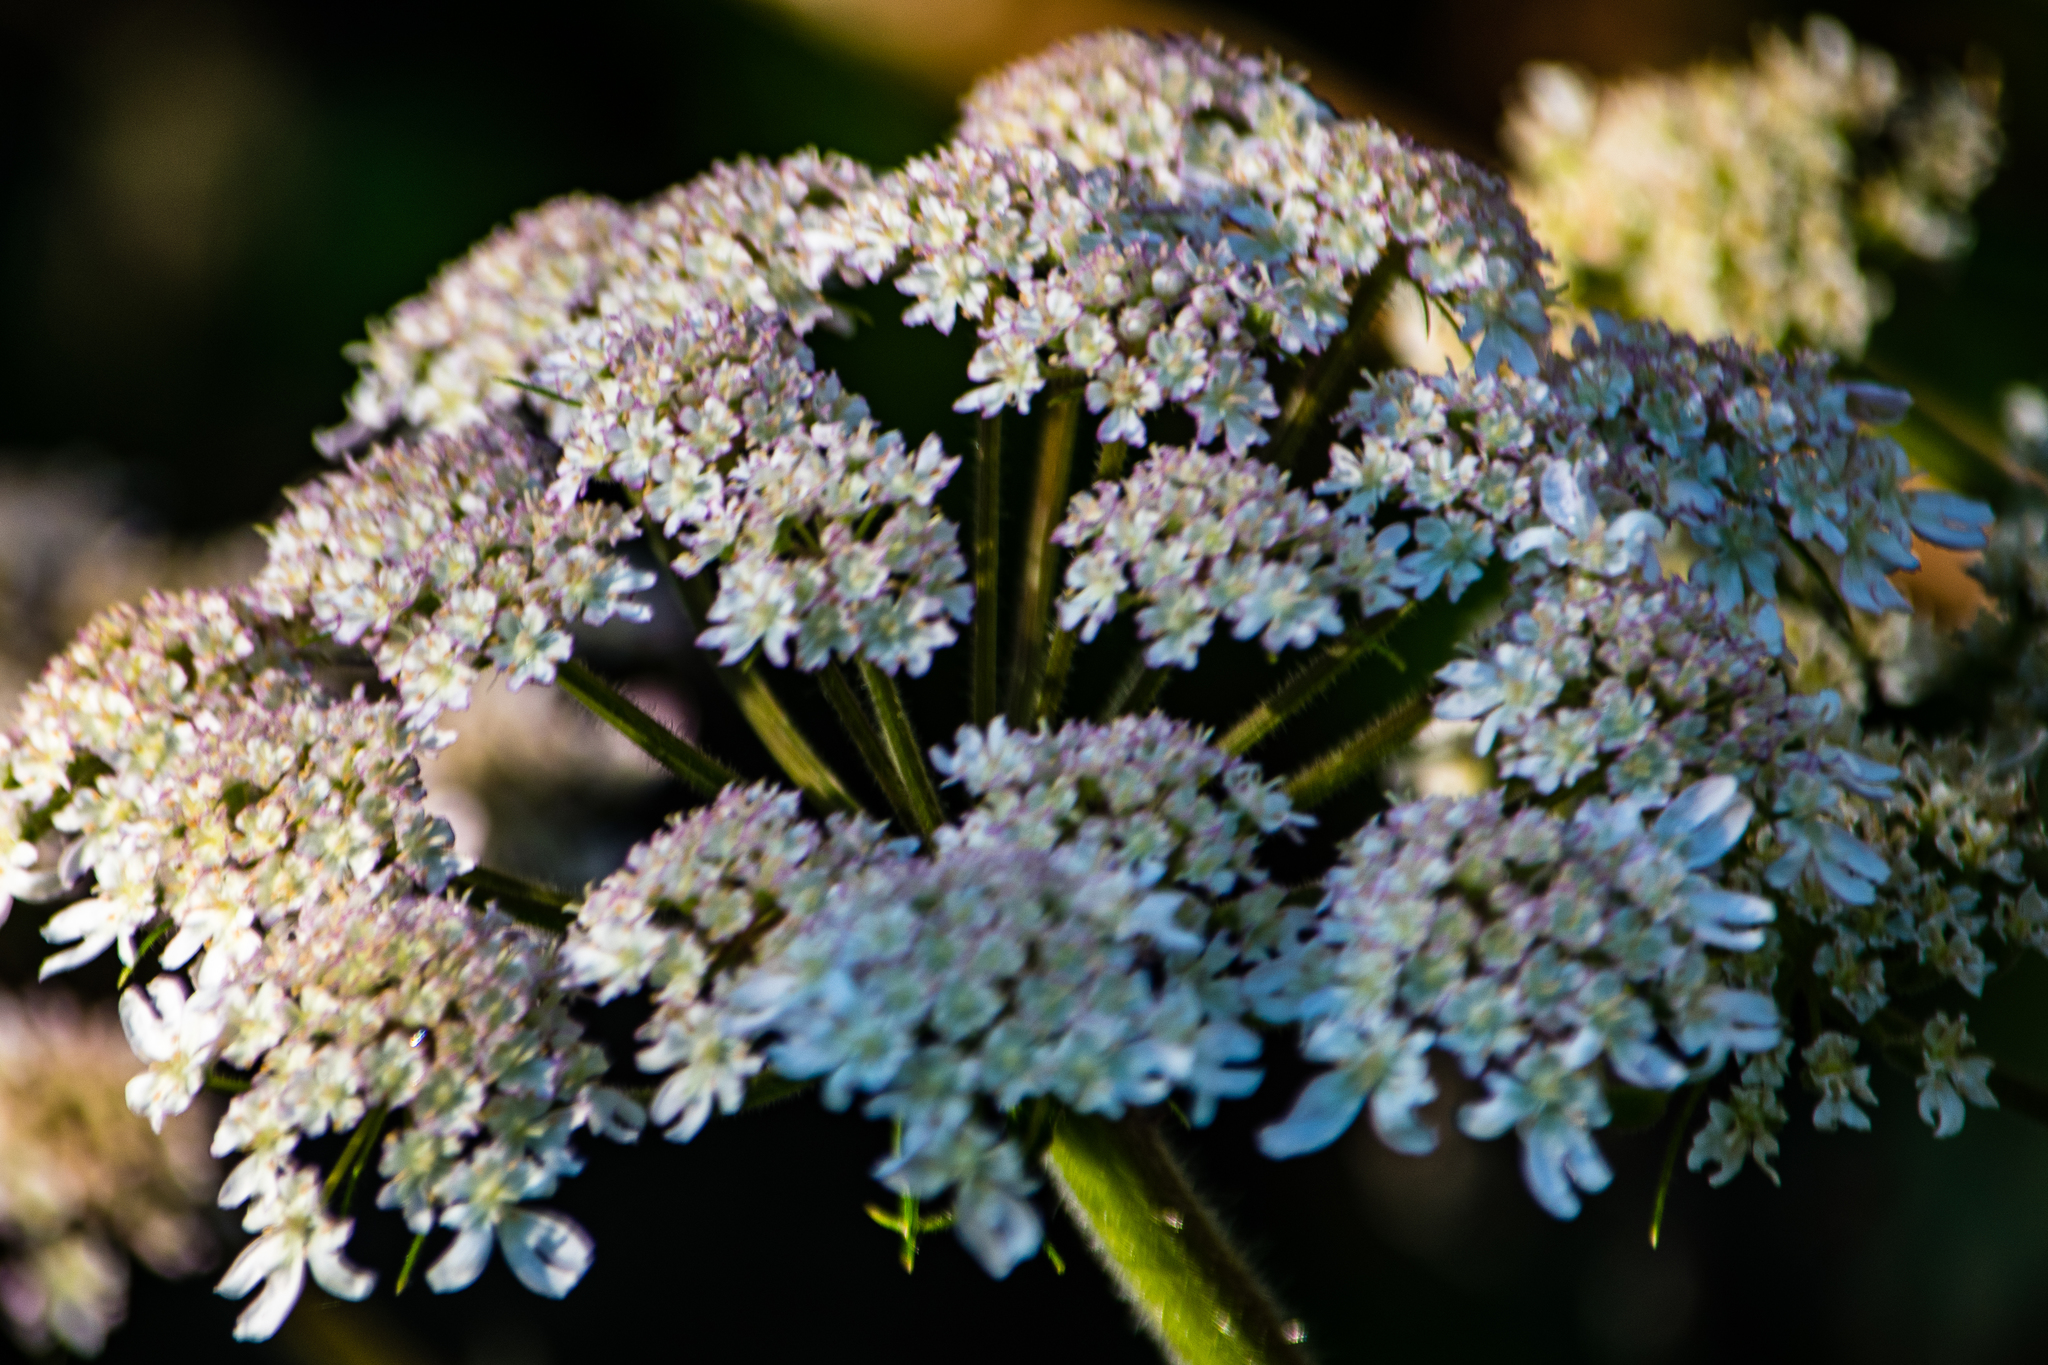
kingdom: Plantae
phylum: Tracheophyta
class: Magnoliopsida
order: Apiales
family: Apiaceae
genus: Heracleum
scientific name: Heracleum sphondylium
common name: Hogweed
